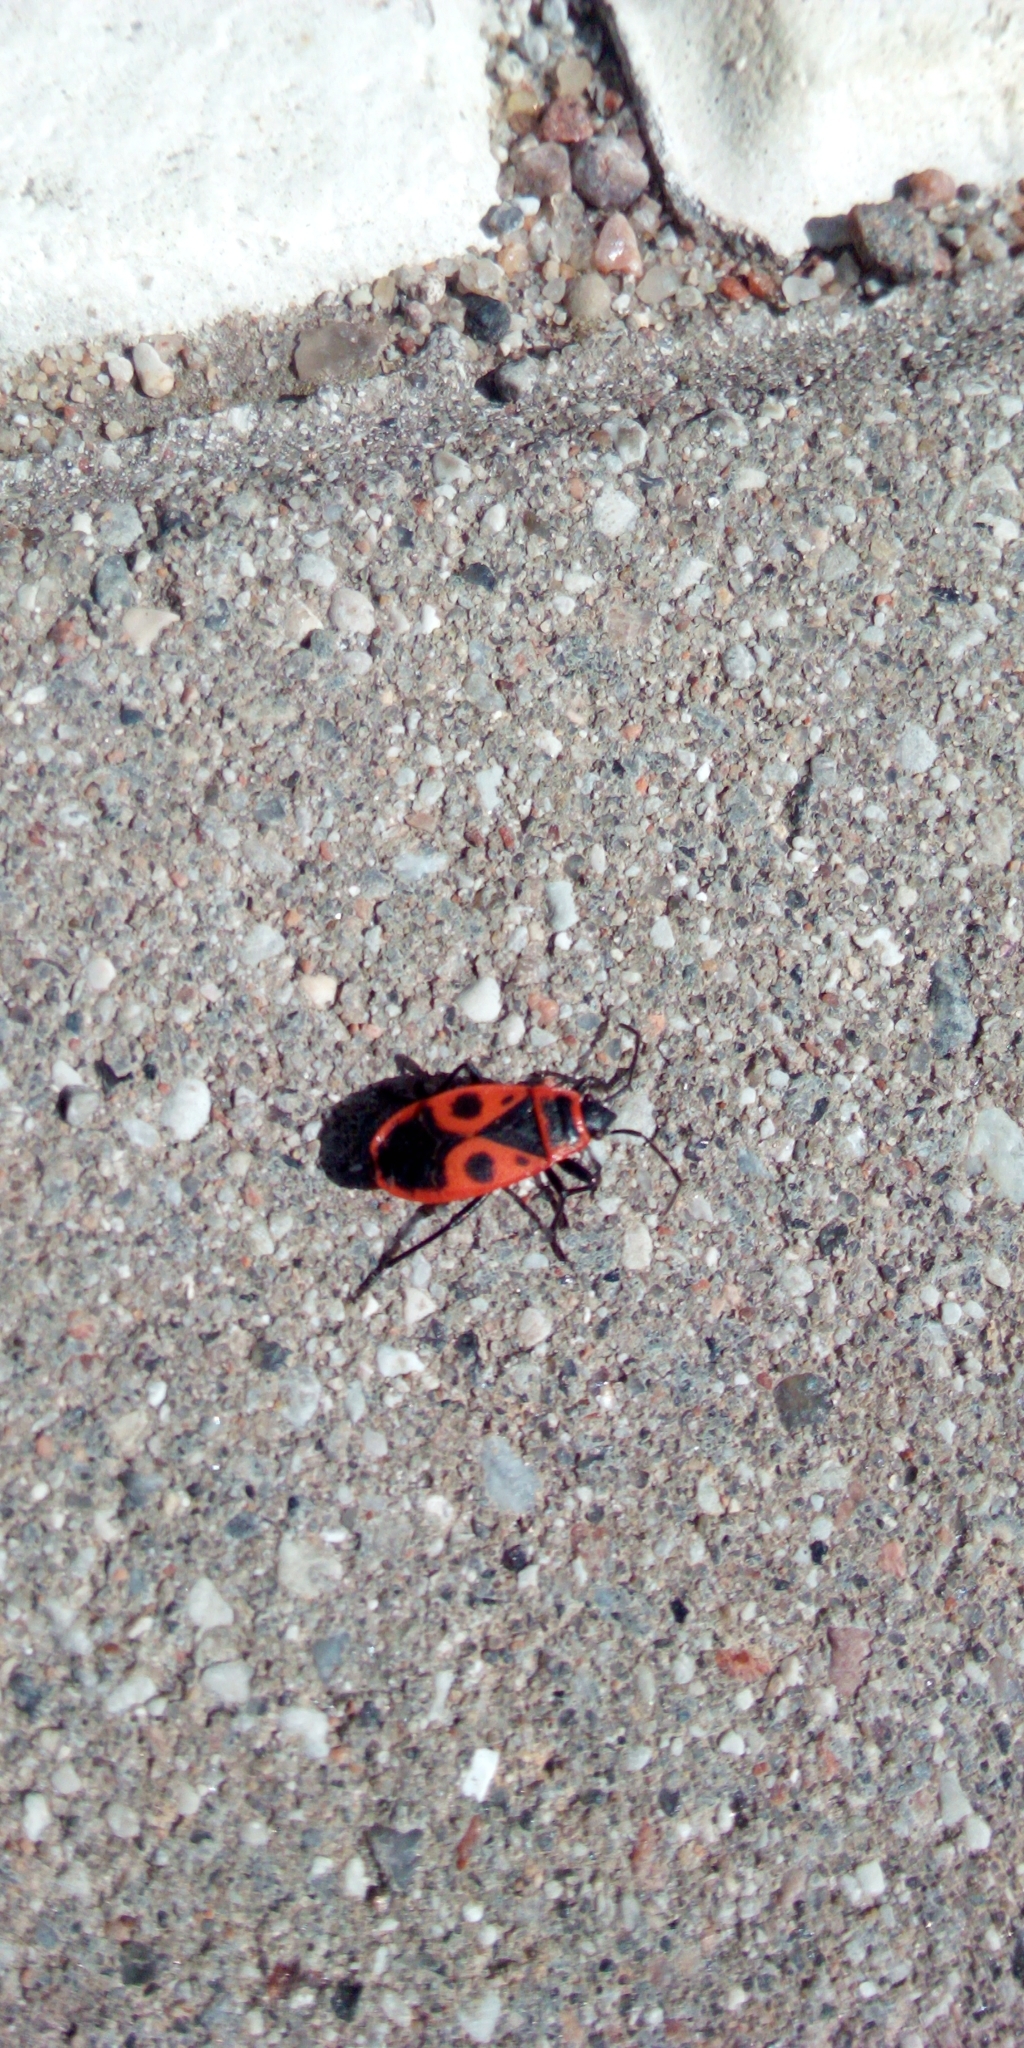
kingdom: Animalia
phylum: Arthropoda
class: Insecta
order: Hemiptera
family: Pyrrhocoridae
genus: Pyrrhocoris
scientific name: Pyrrhocoris apterus
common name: Firebug
